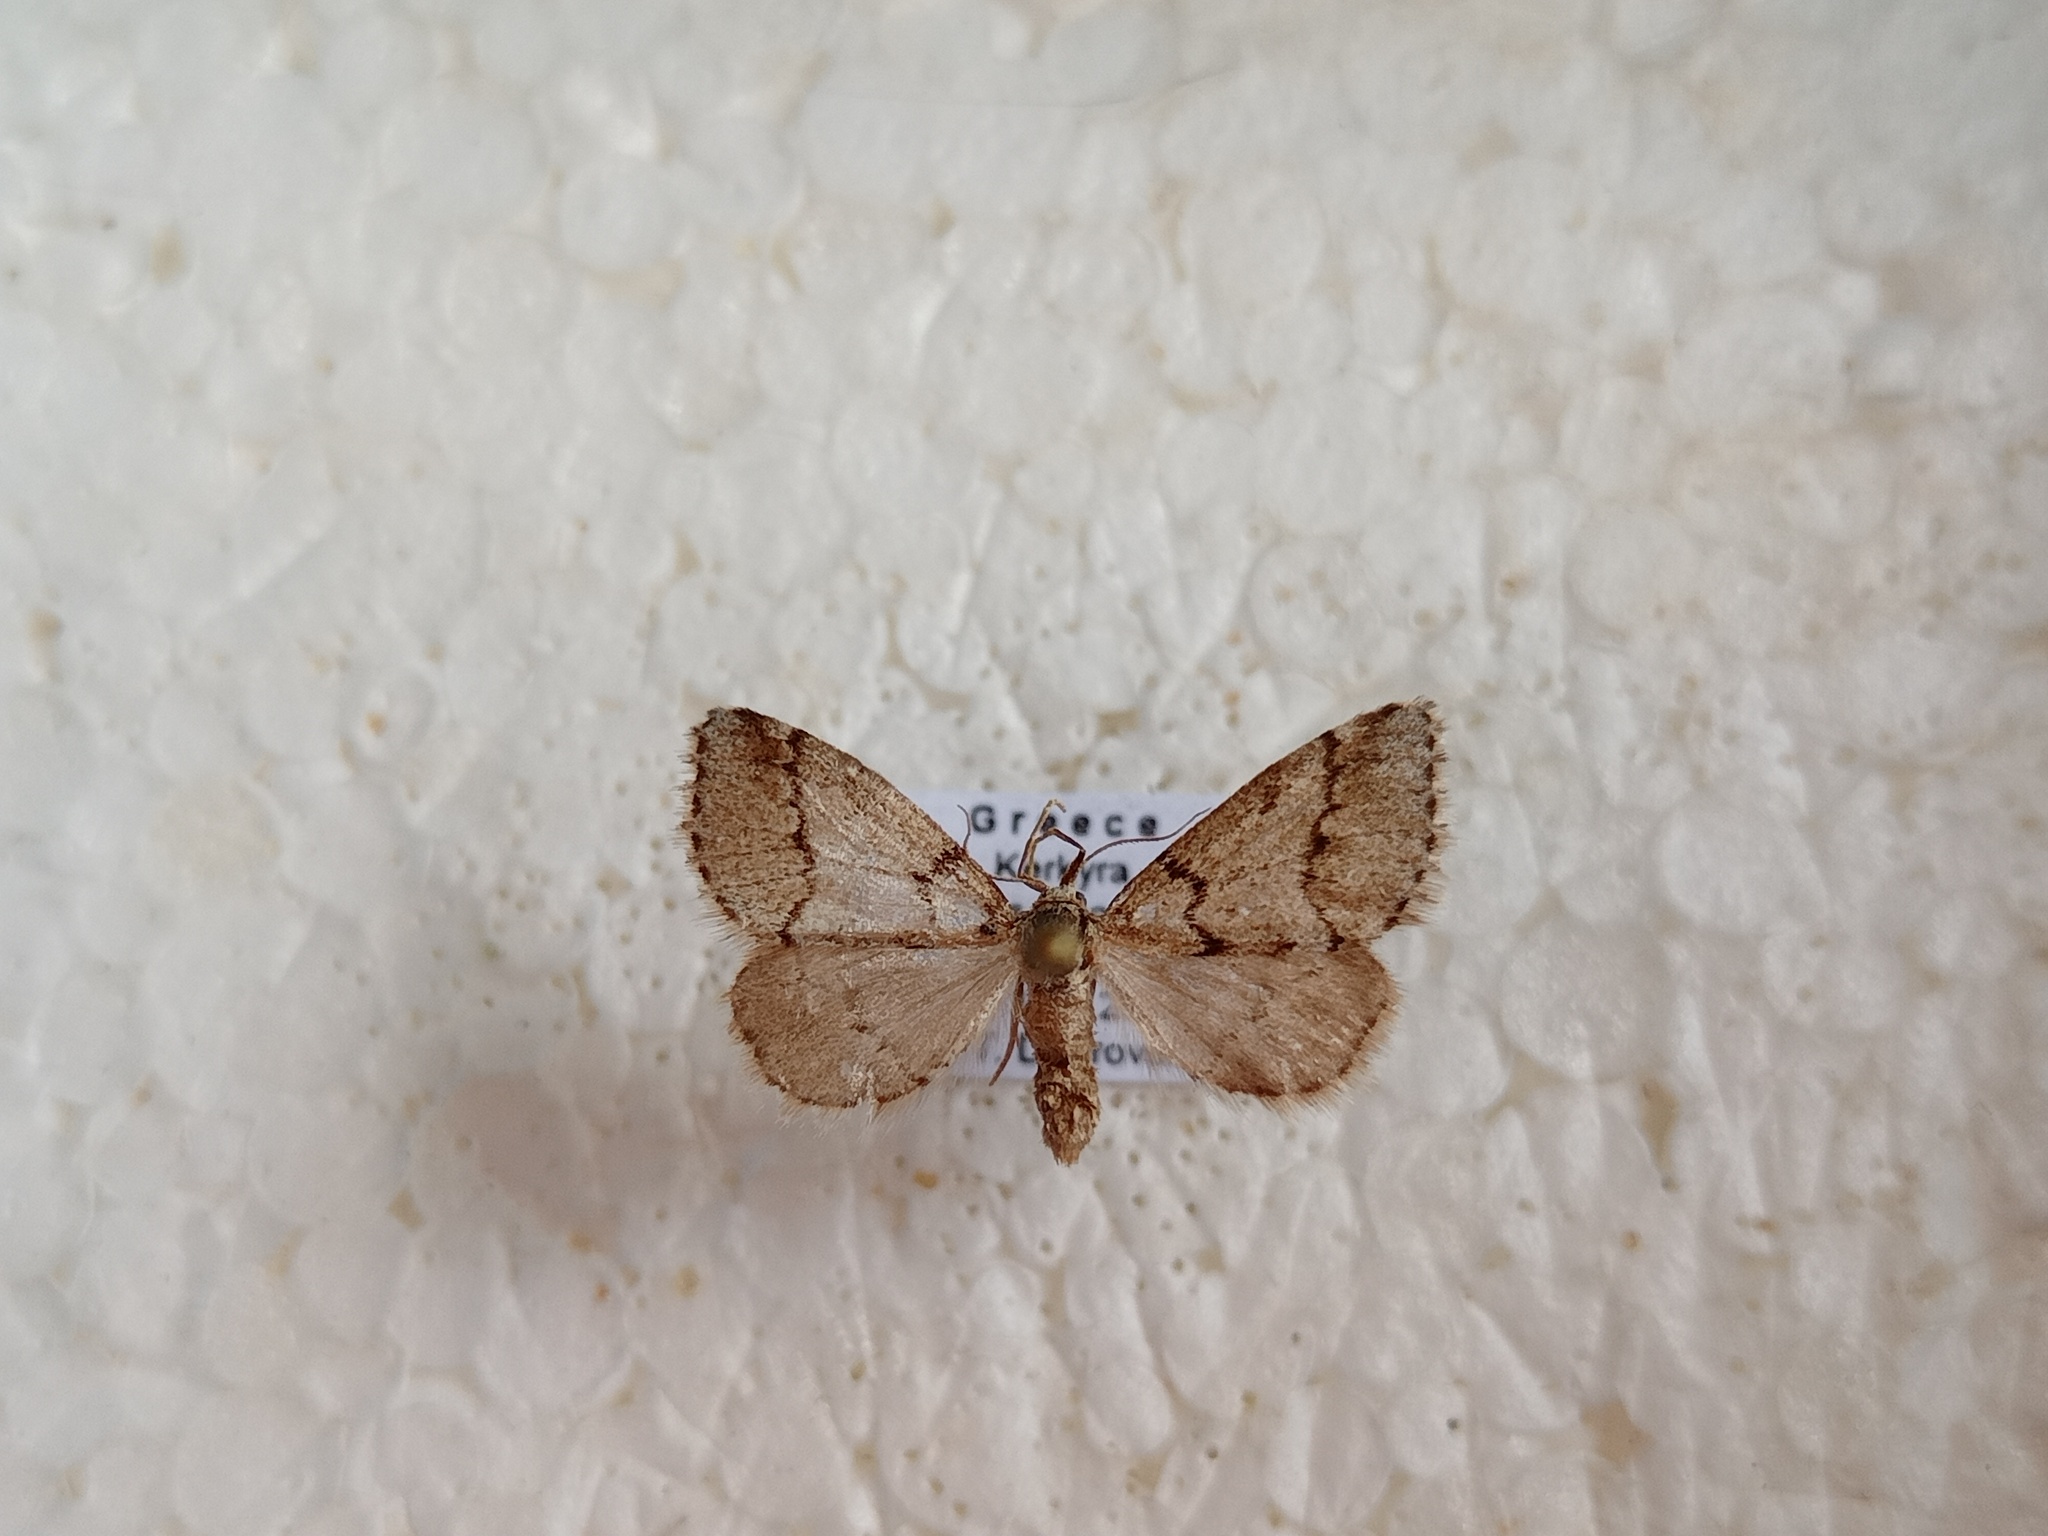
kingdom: Animalia
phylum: Arthropoda
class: Insecta
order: Lepidoptera
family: Geometridae
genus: Eumannia
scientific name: Eumannia oppositaria
